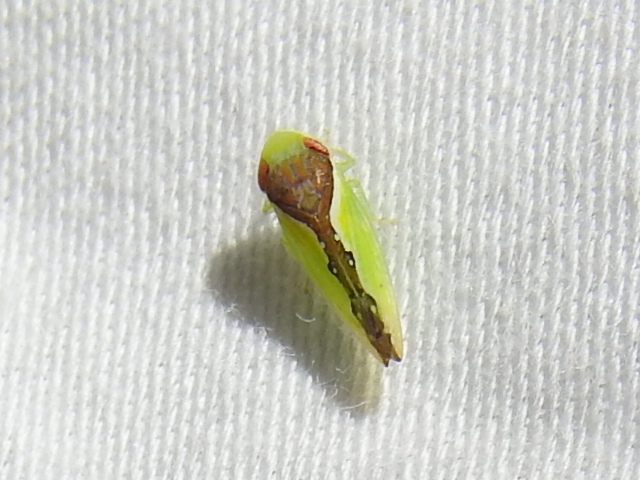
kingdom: Animalia
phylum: Arthropoda
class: Insecta
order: Hemiptera
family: Cicadellidae
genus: Omansobara ing
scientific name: Omansobara ing Omansobara palliolata
